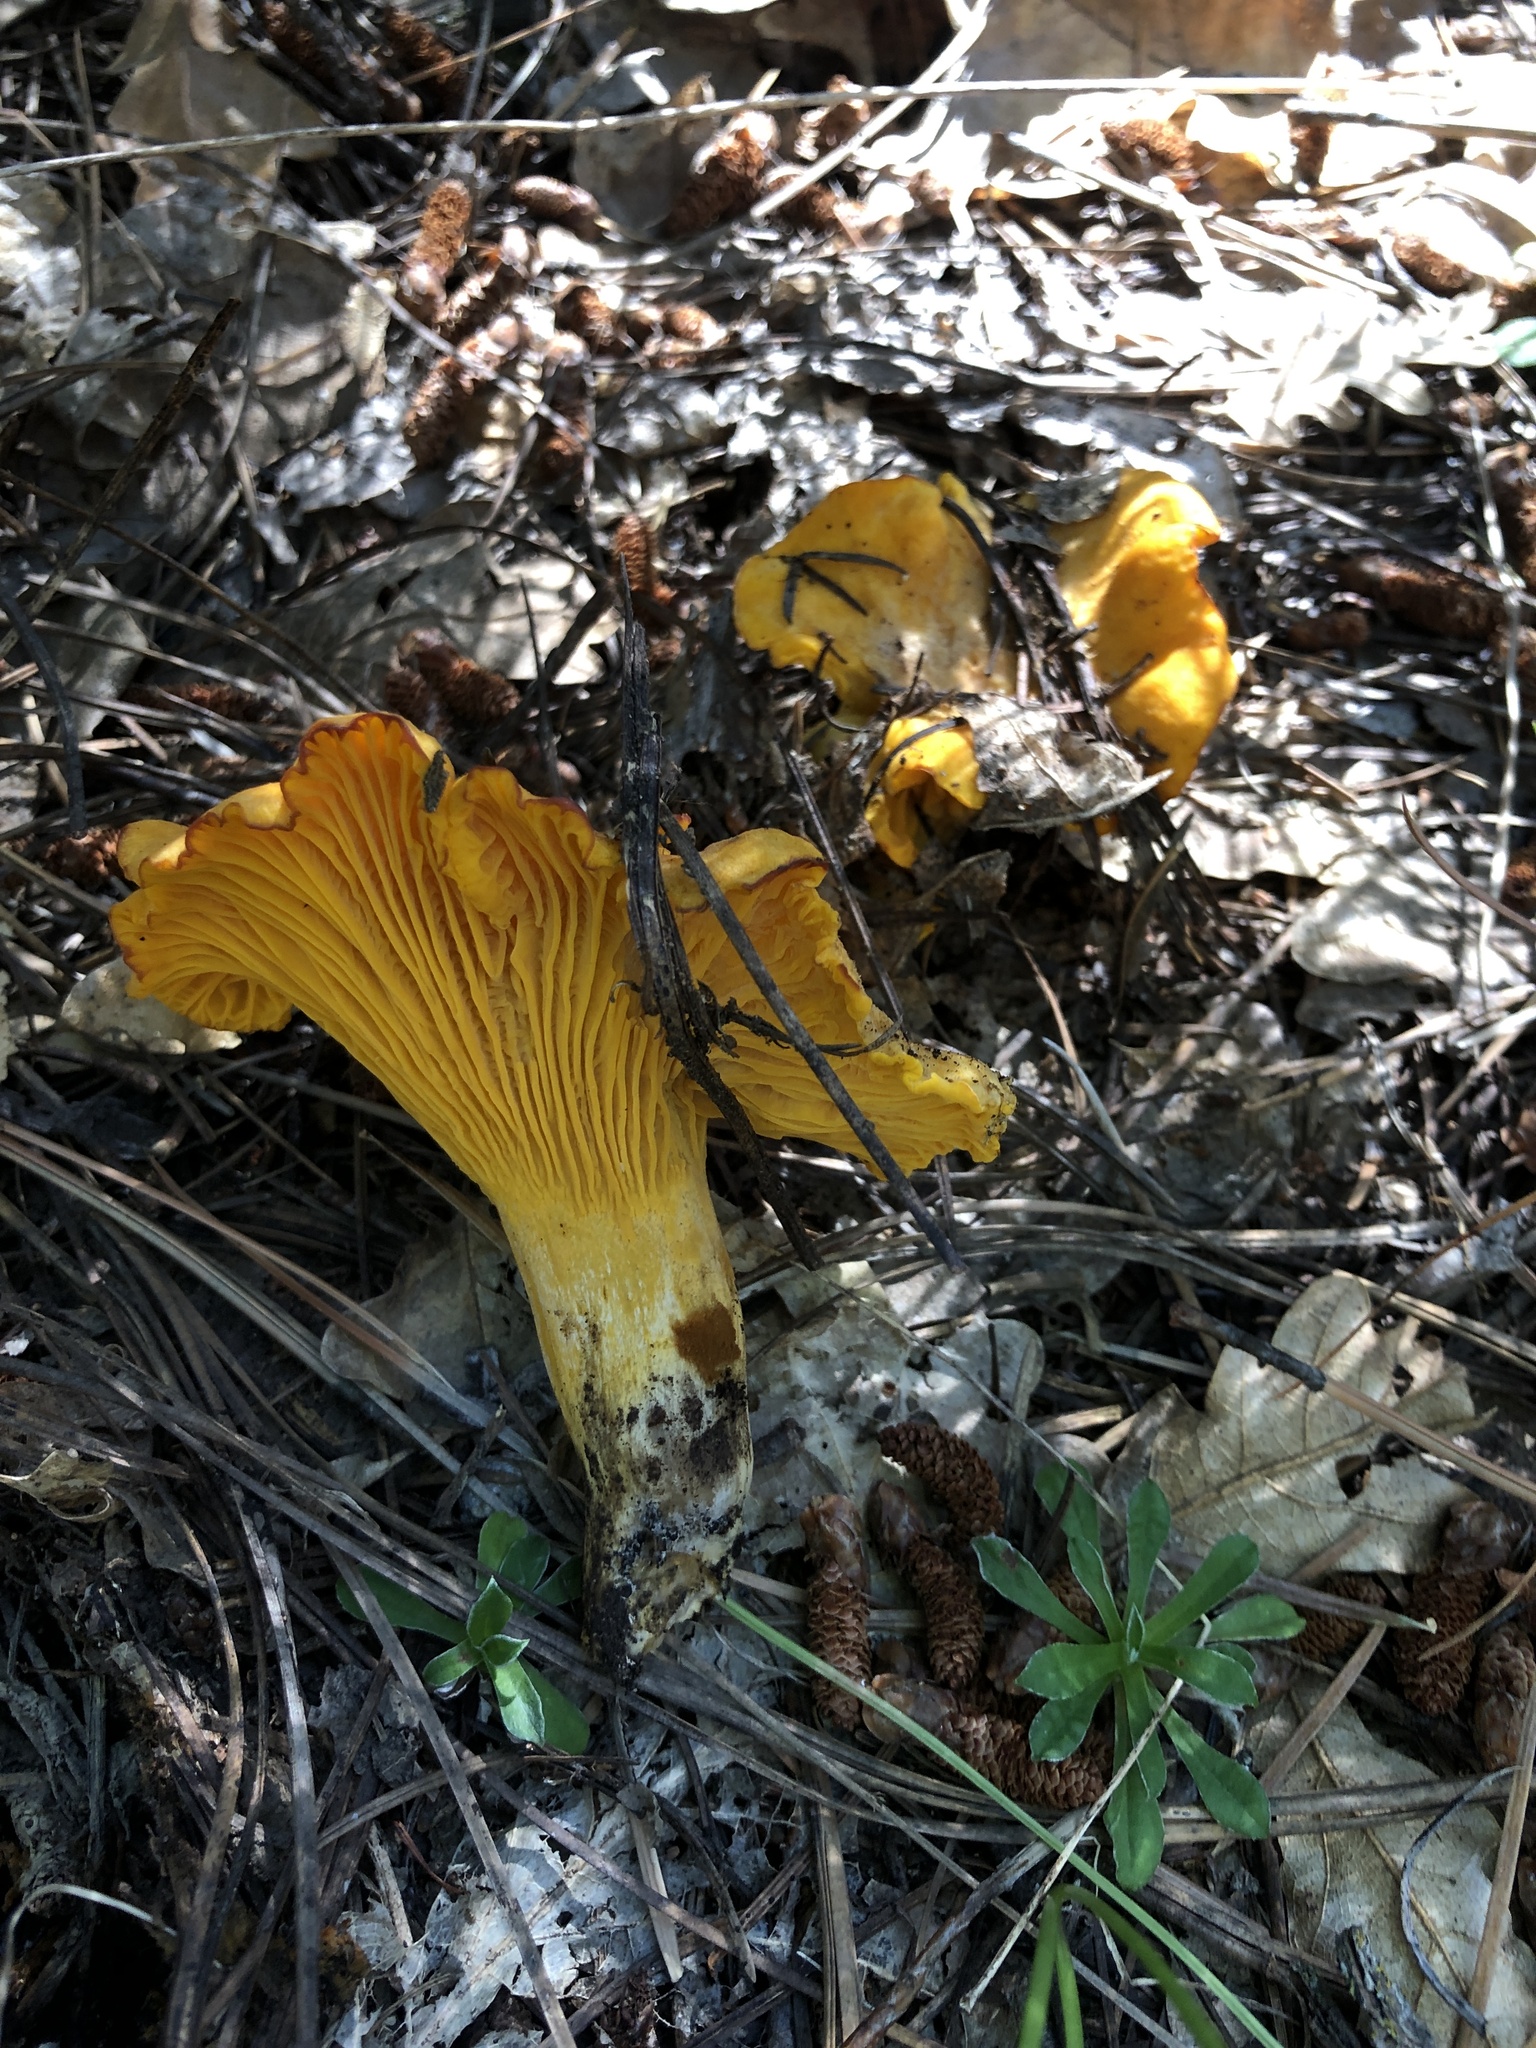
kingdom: Fungi
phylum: Basidiomycota
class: Agaricomycetes
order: Cantharellales
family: Hydnaceae
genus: Cantharellus
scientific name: Cantharellus roseocanus
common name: Rainbow chanterelle
